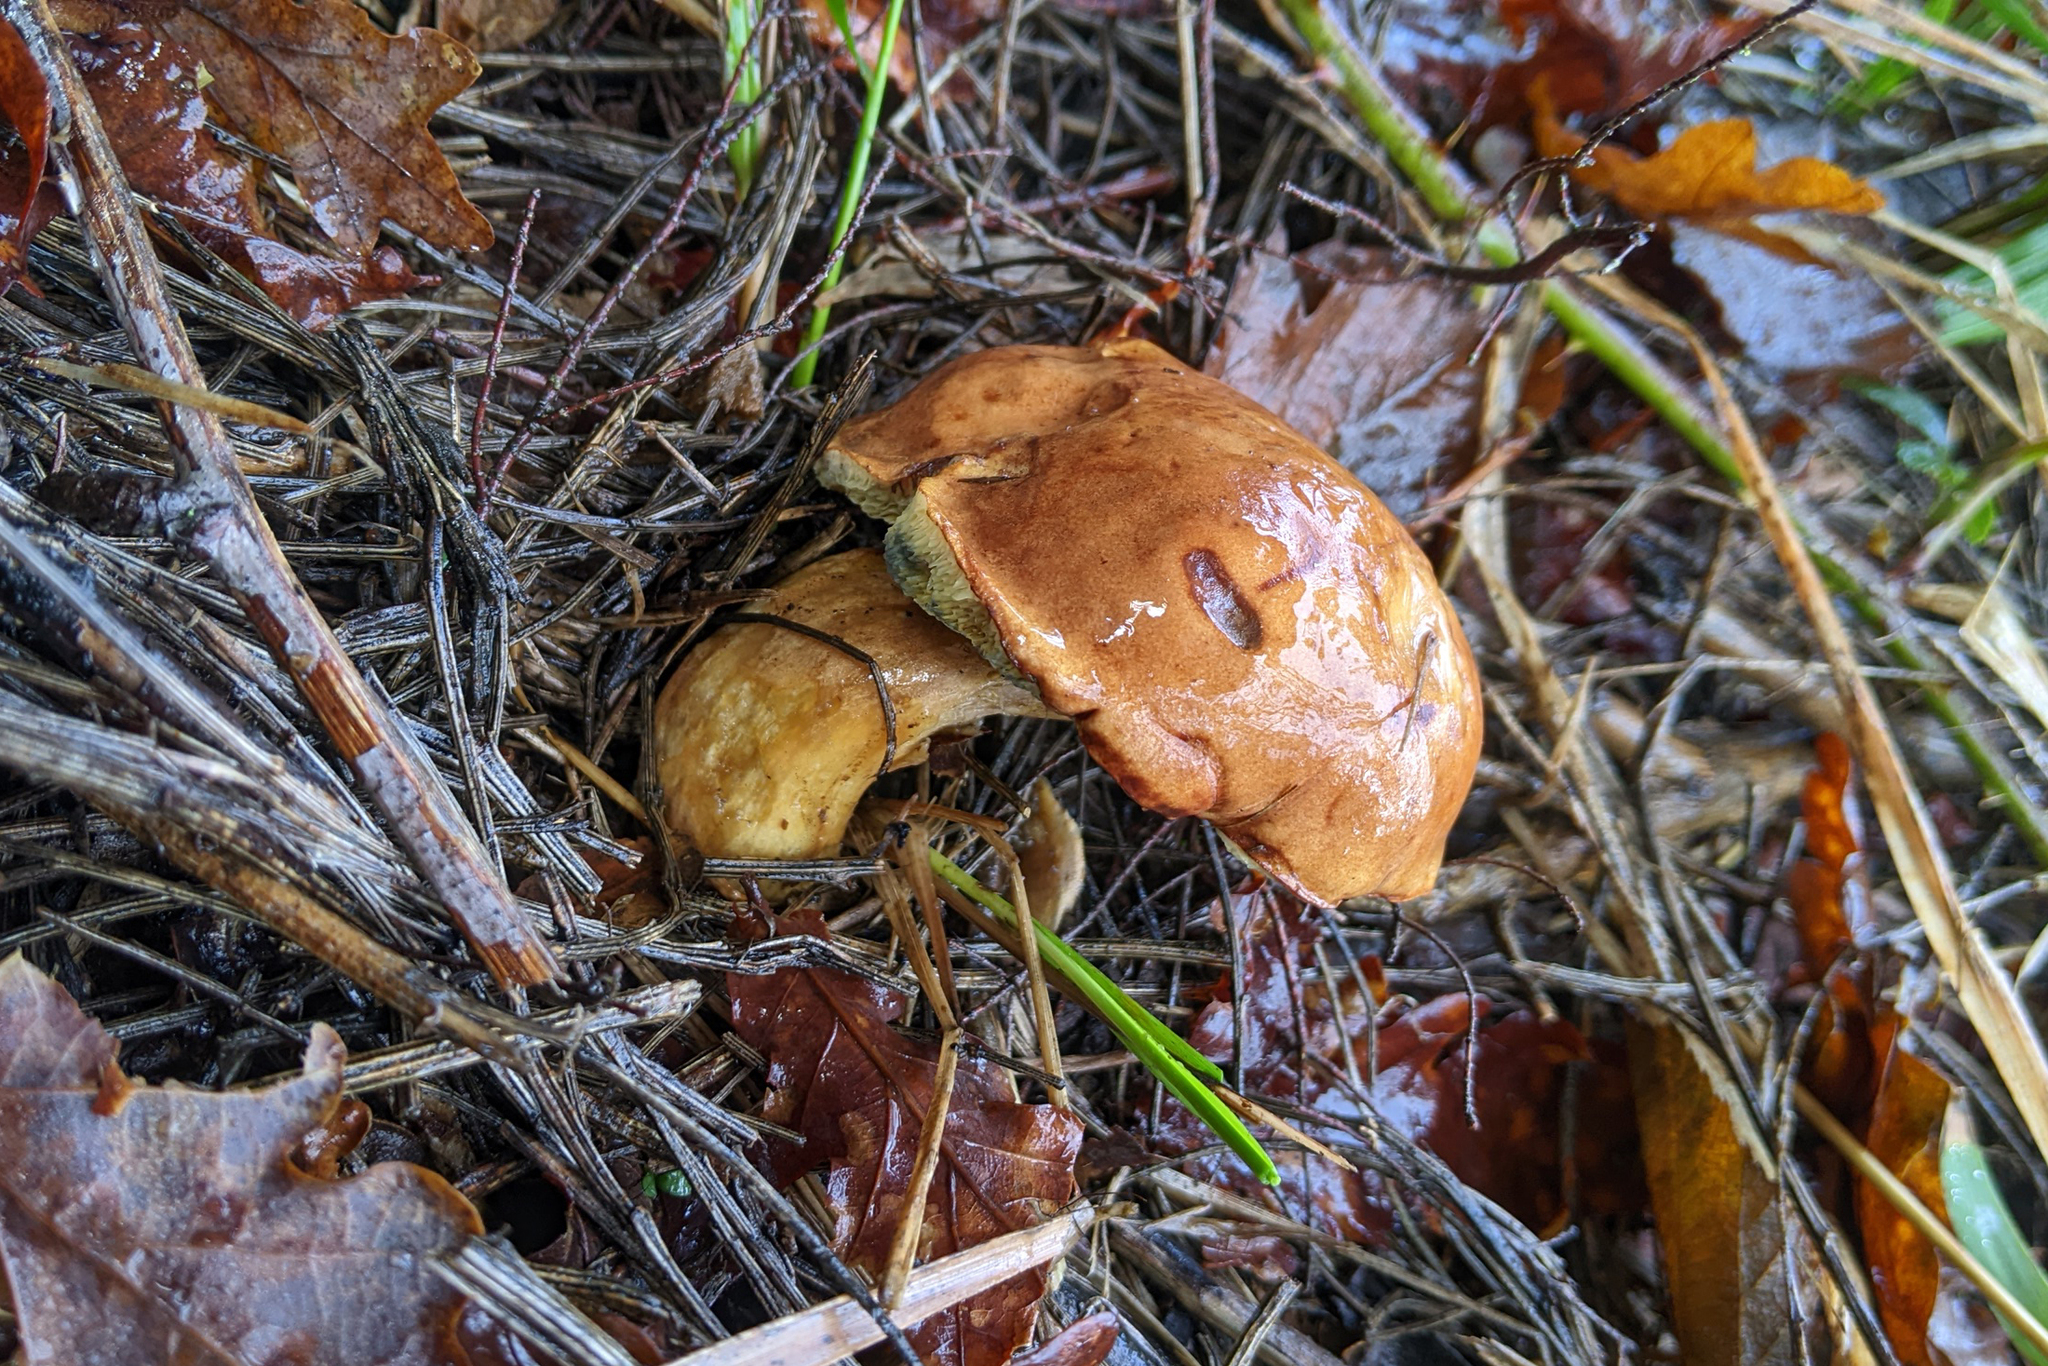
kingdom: Fungi
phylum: Basidiomycota
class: Agaricomycetes
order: Boletales
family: Boletaceae
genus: Imleria
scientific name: Imleria badia
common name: Bay bolete
